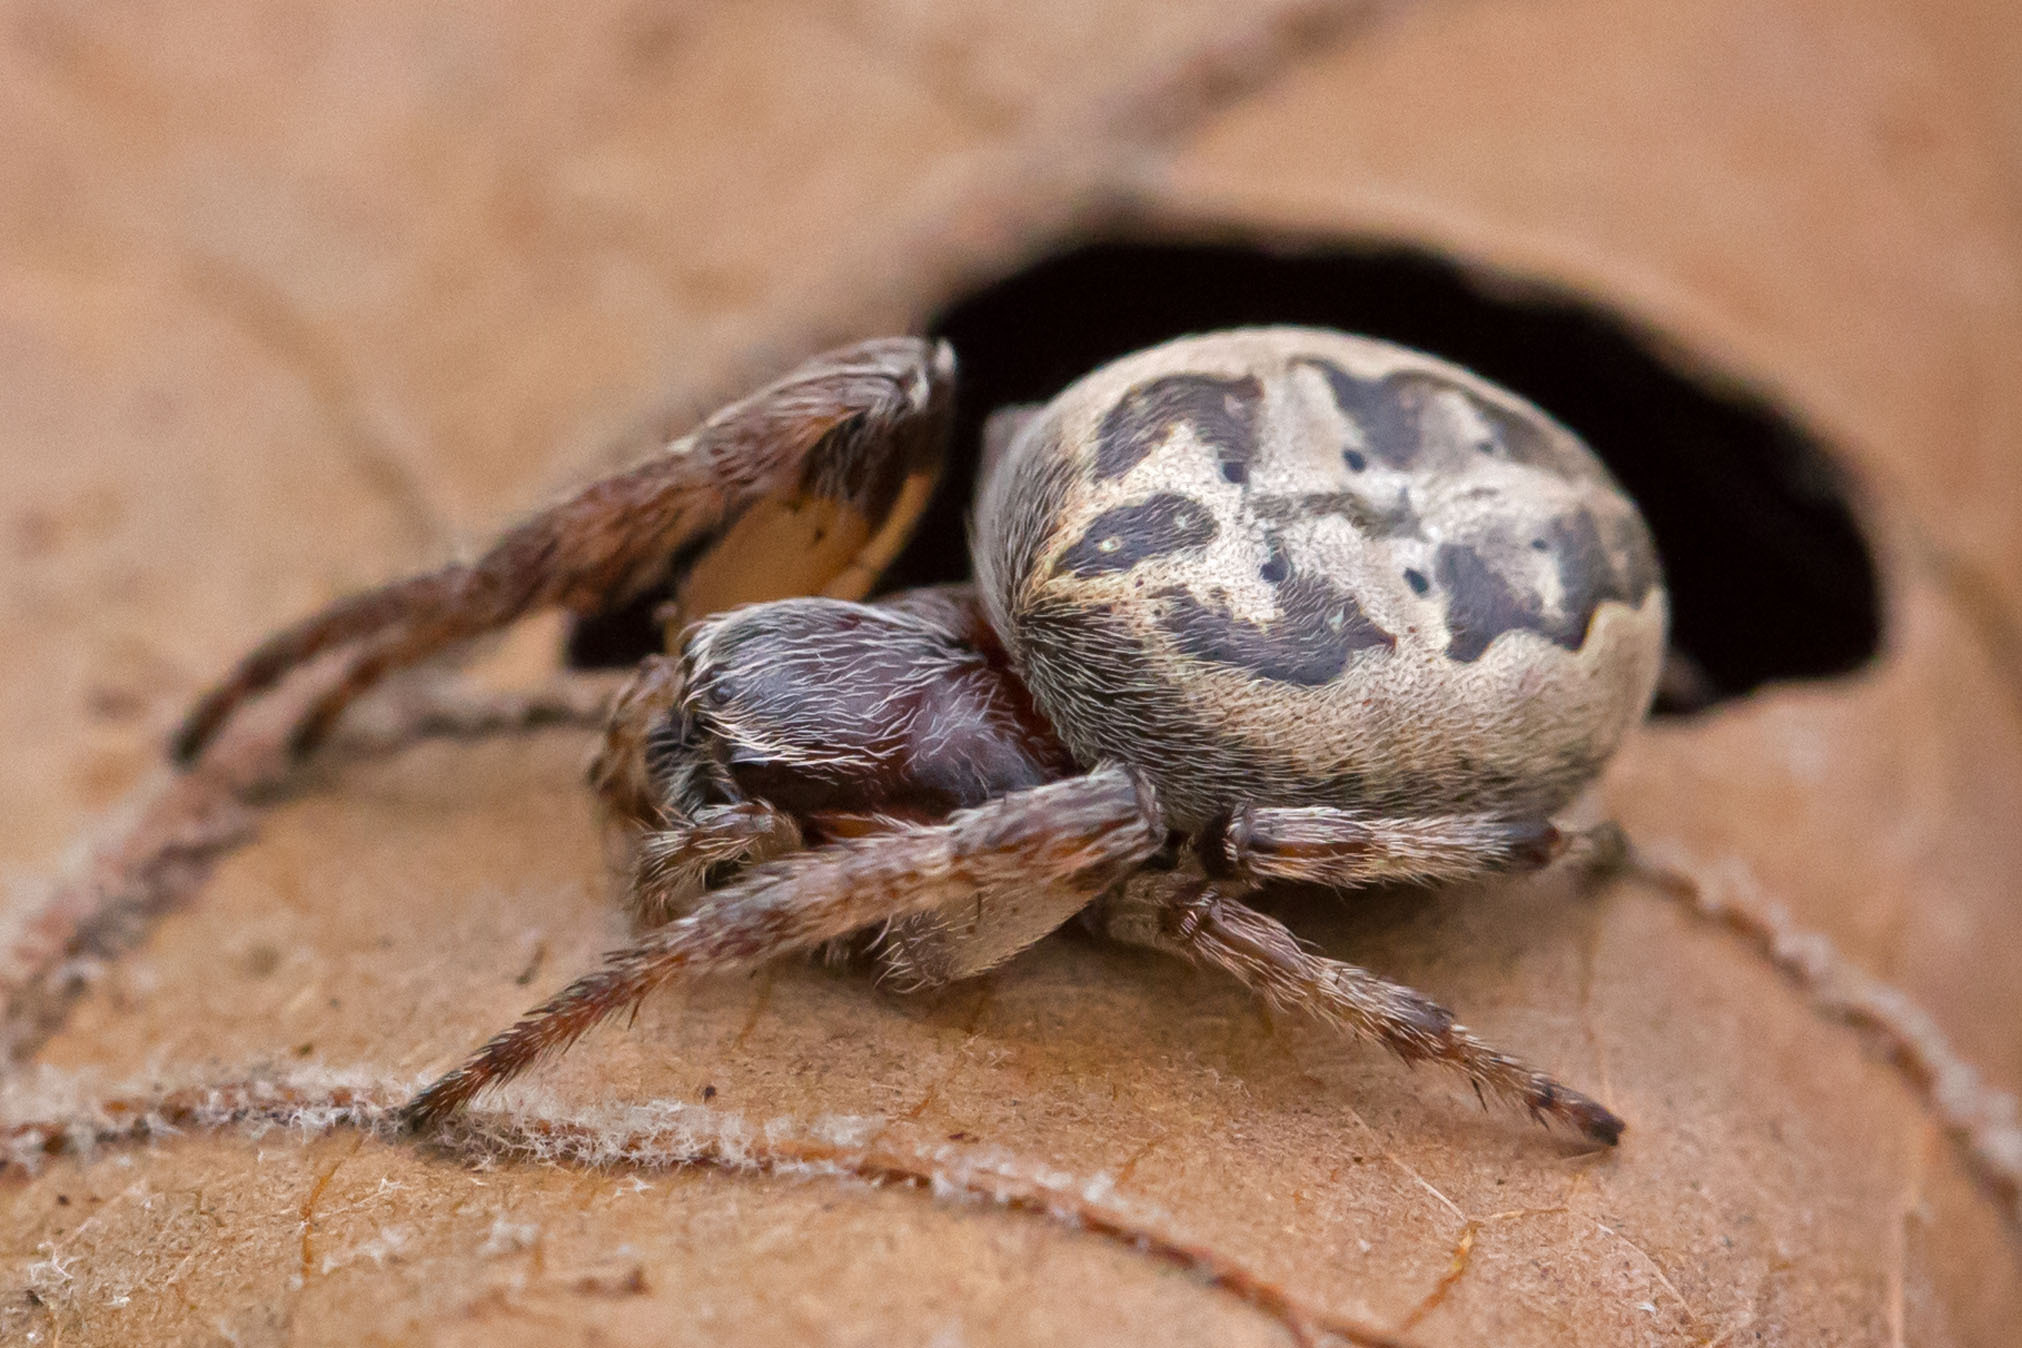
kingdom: Animalia
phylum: Arthropoda
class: Arachnida
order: Araneae
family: Araneidae
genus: Larinioides
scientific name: Larinioides cornutus
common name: Furrow orbweaver
